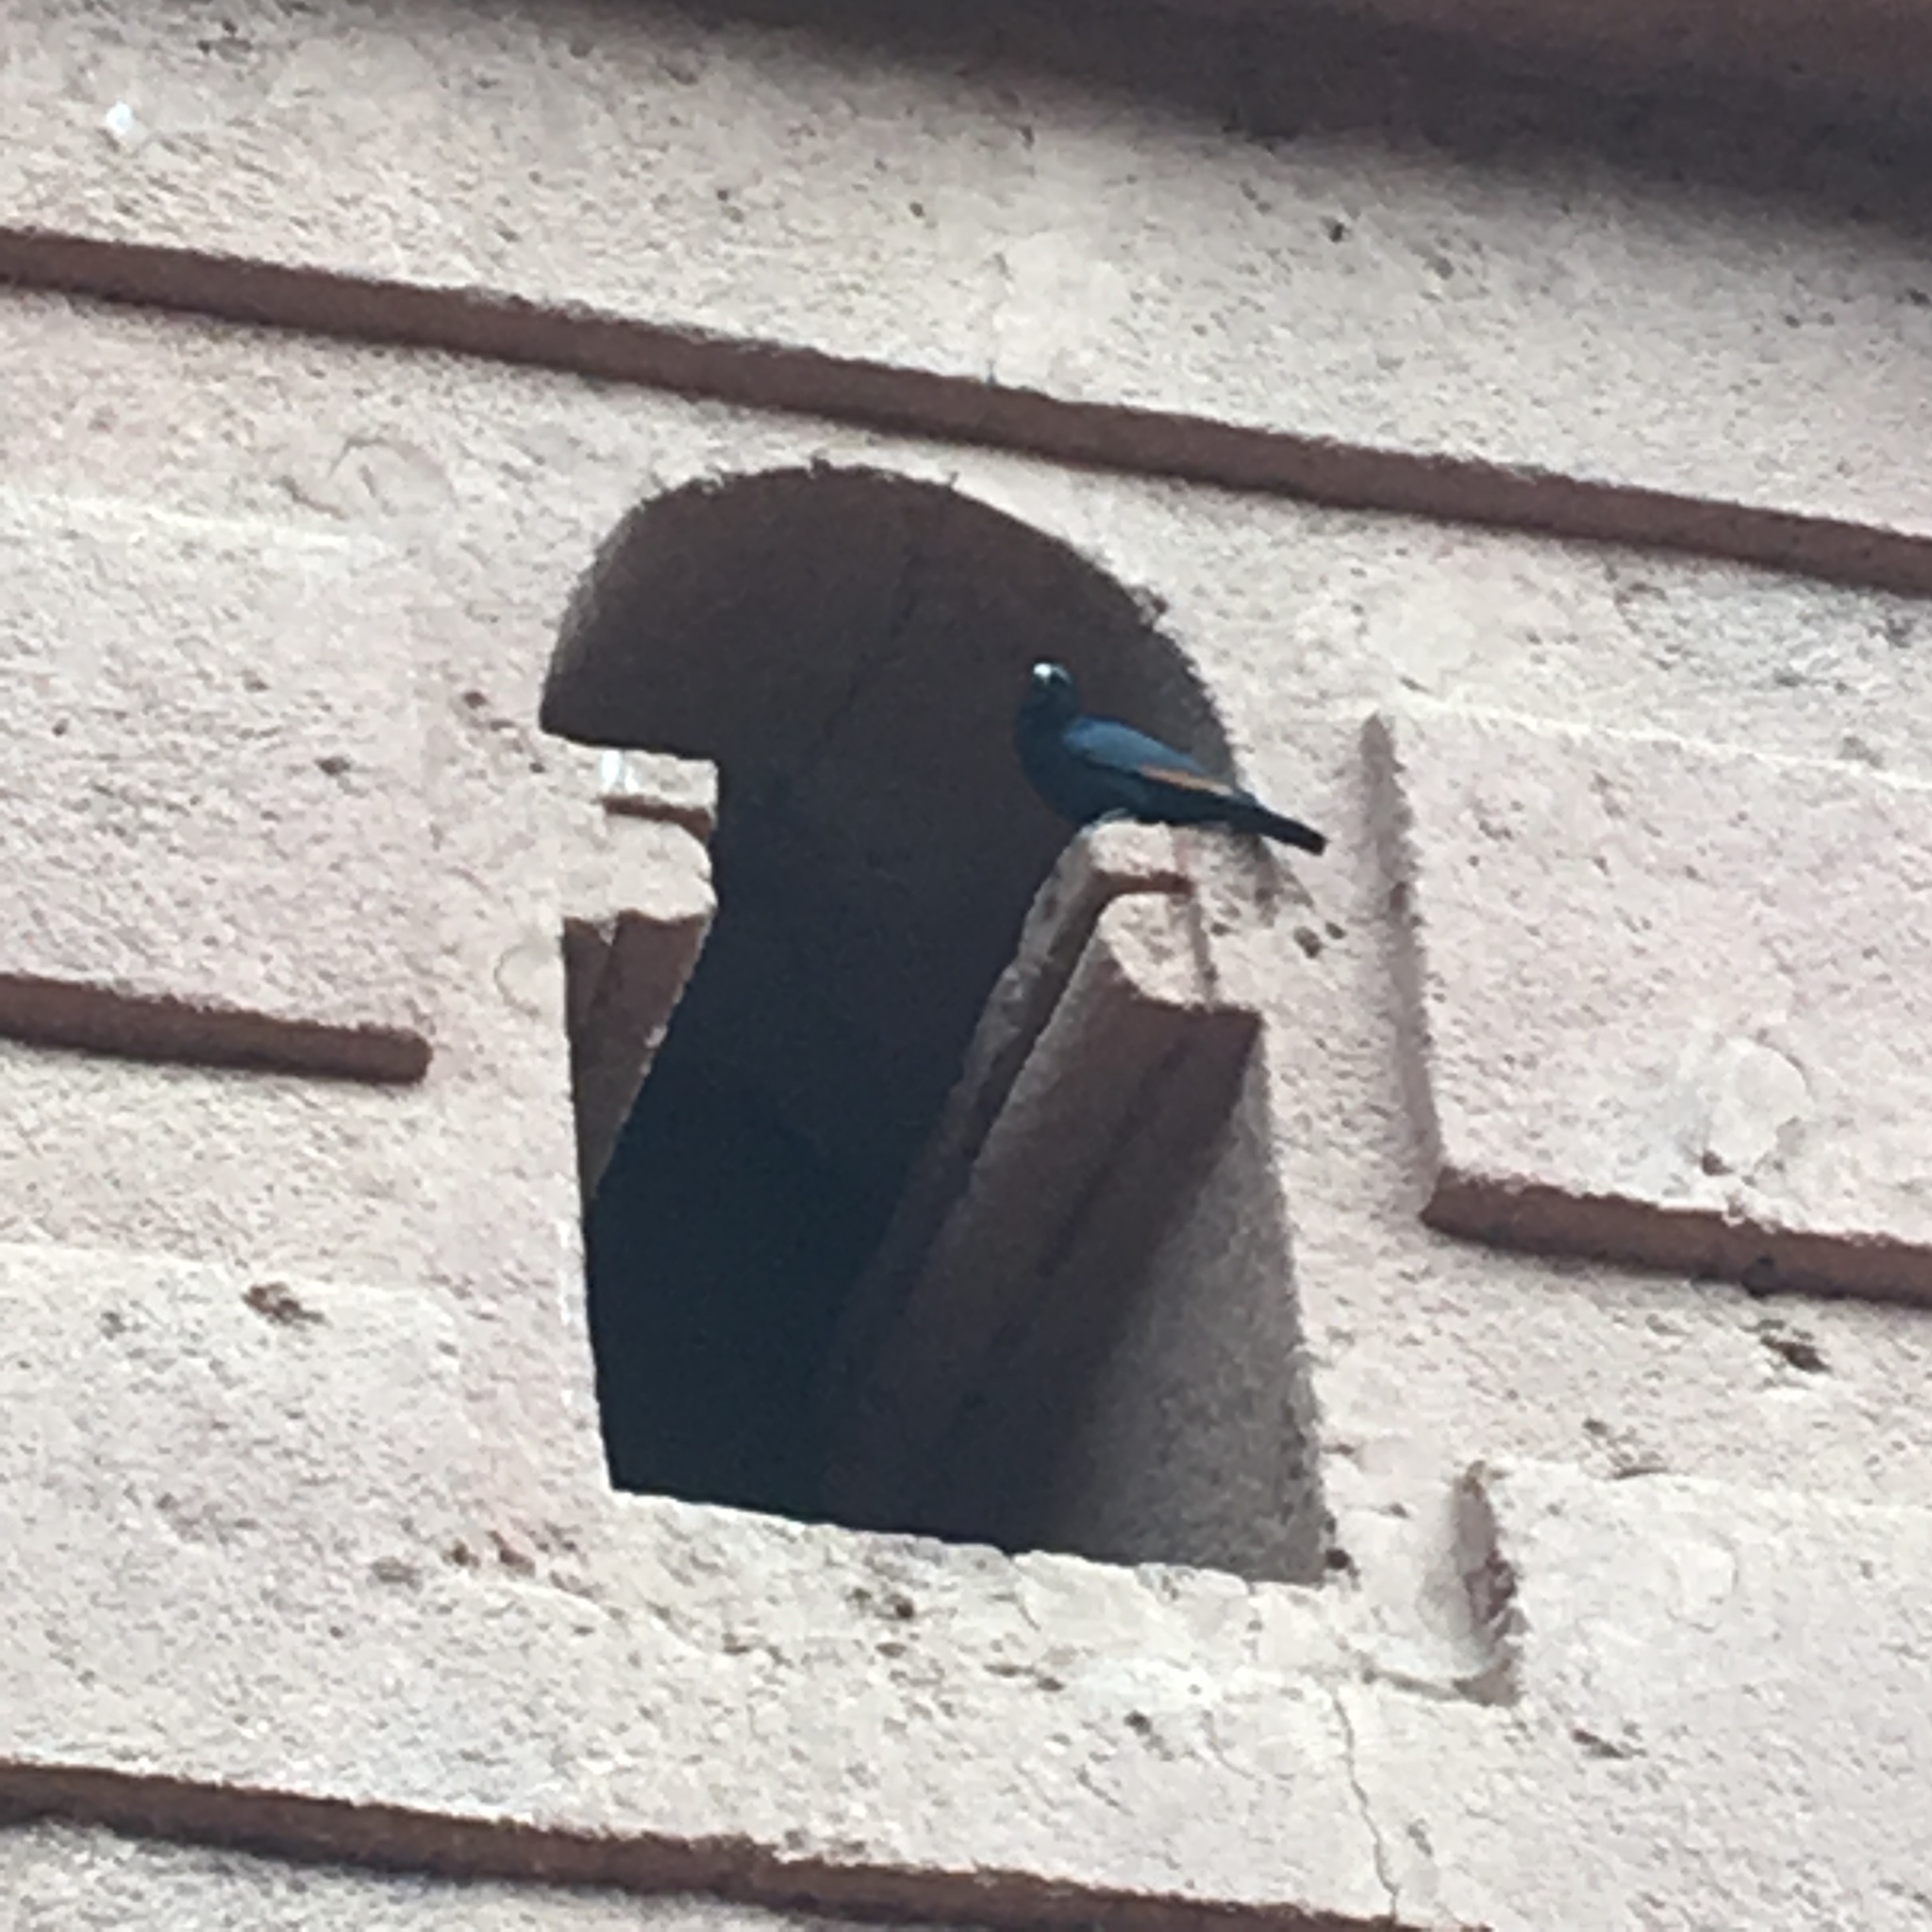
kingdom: Animalia
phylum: Chordata
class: Aves
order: Passeriformes
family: Sturnidae
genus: Onychognathus
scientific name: Onychognathus albirostris
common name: White-billed starling
